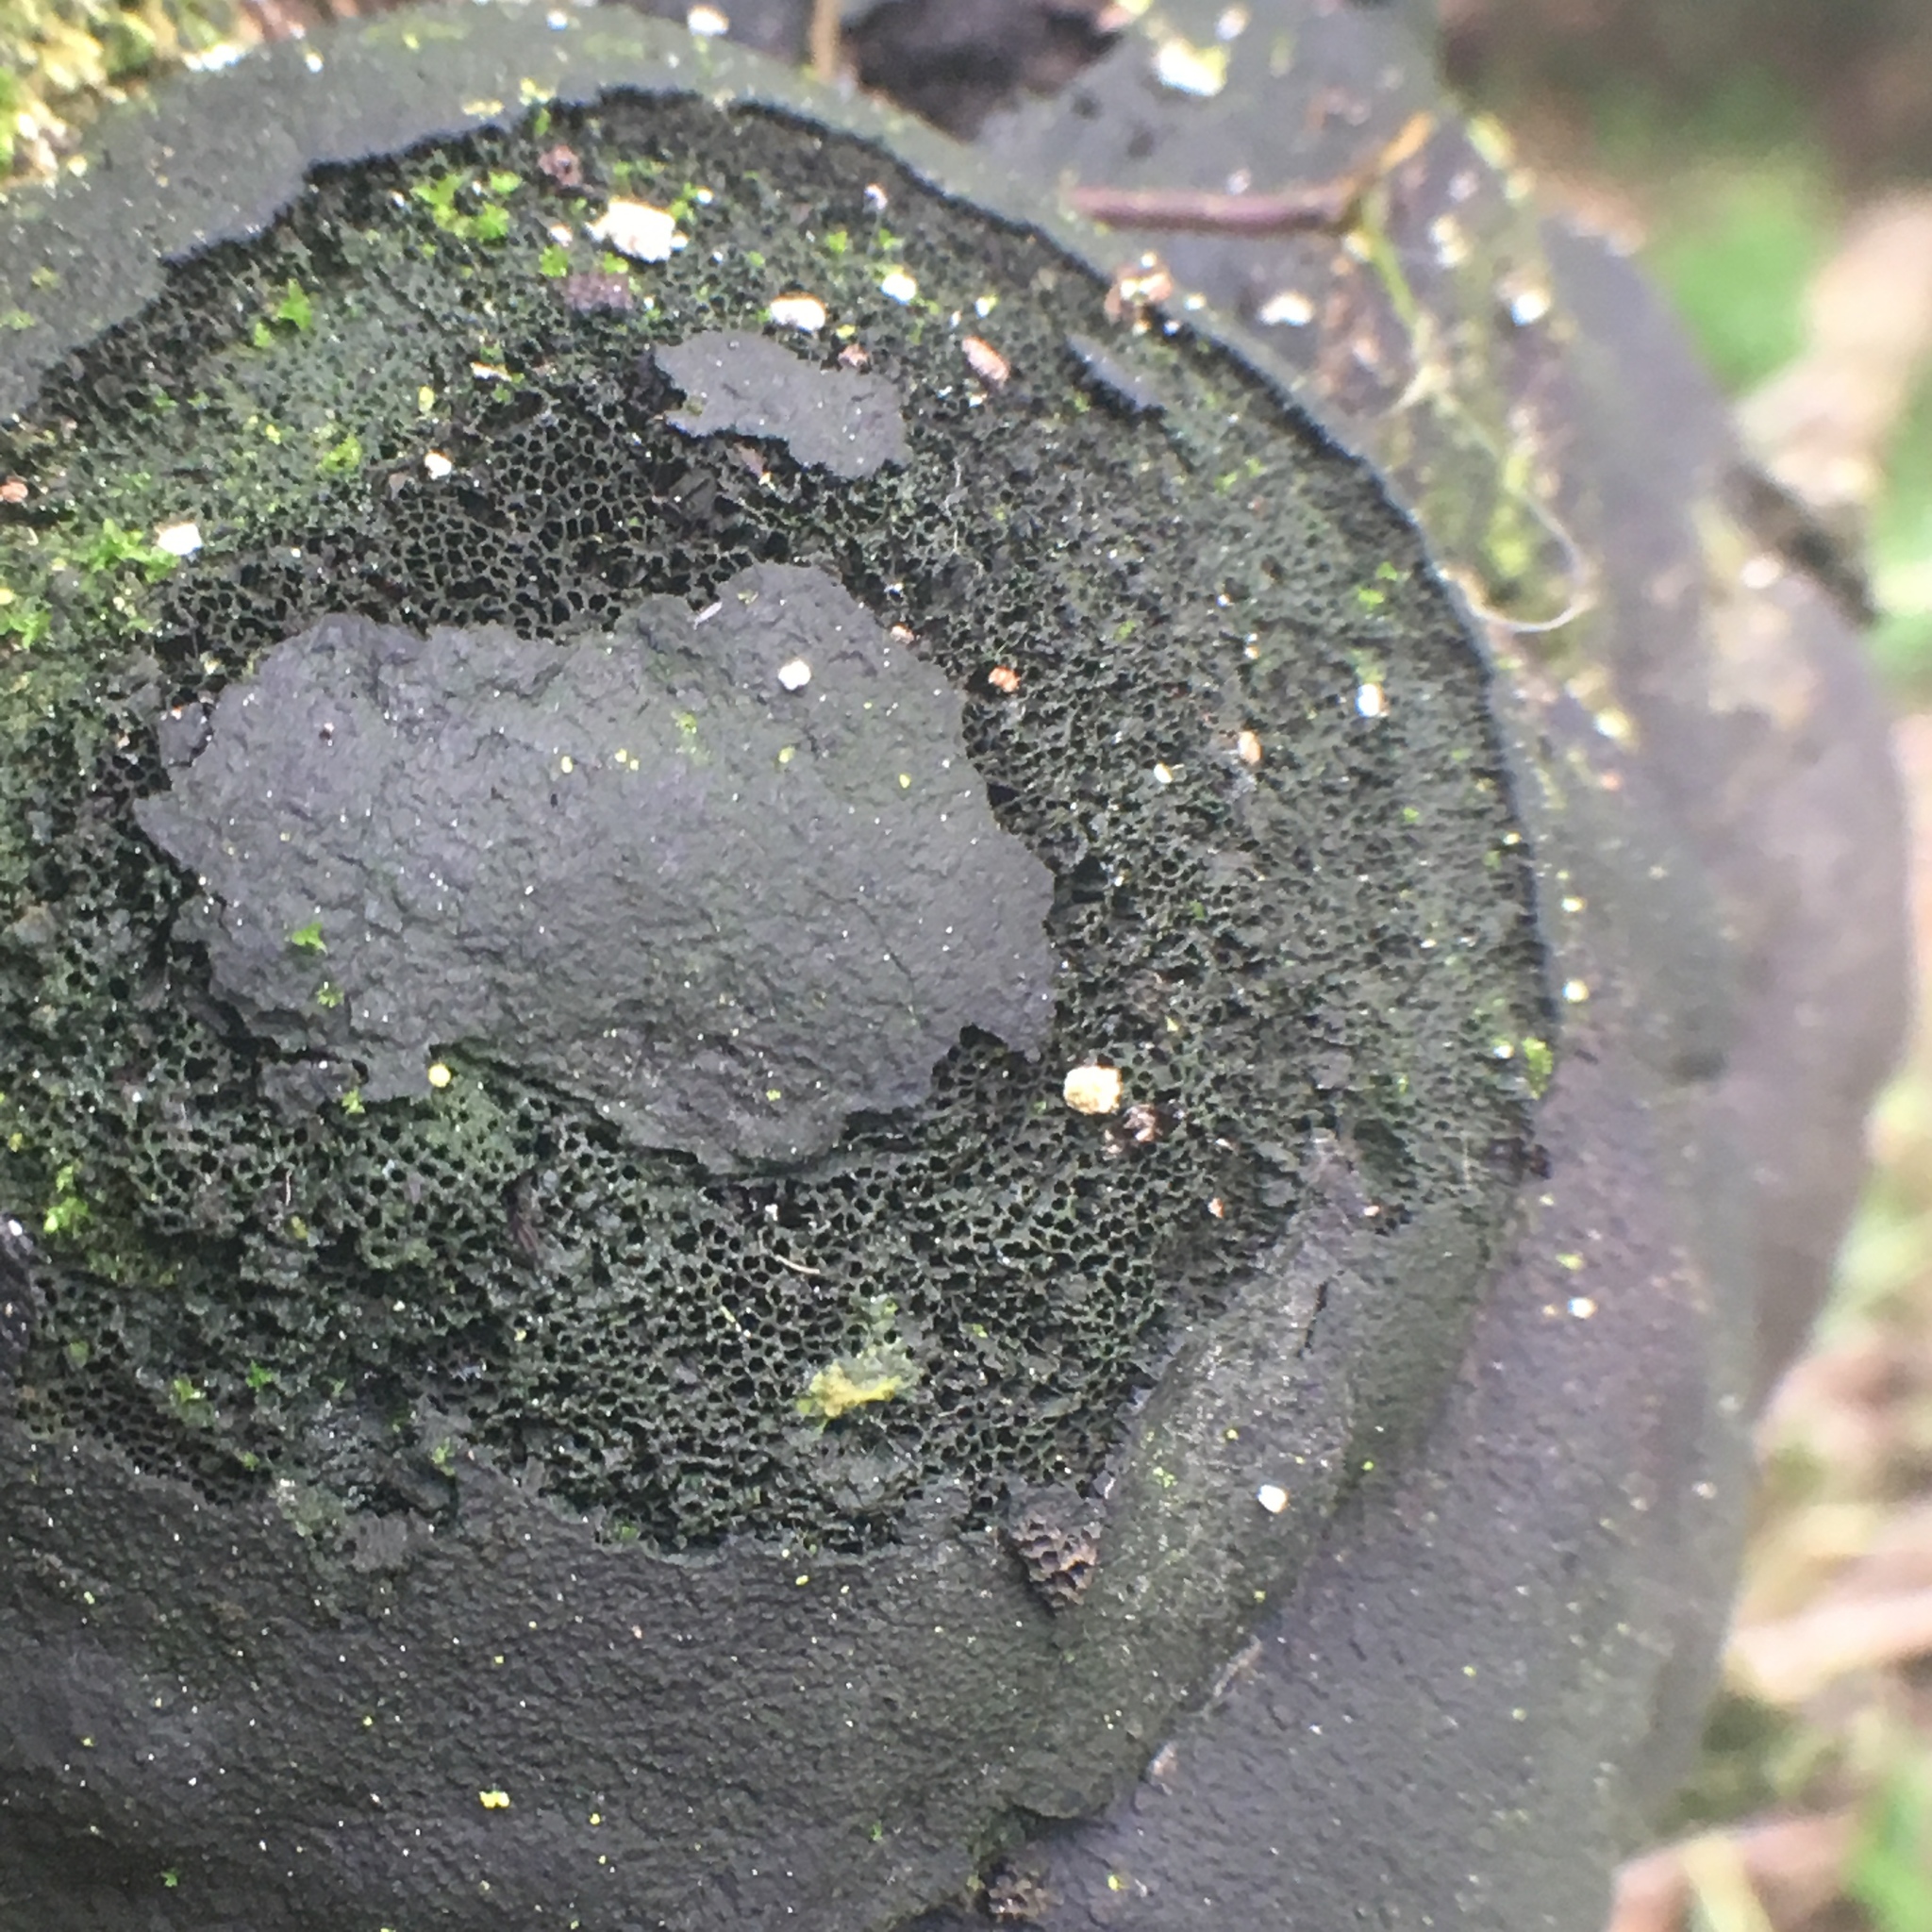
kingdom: Fungi
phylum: Ascomycota
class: Sordariomycetes
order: Xylariales
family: Hypoxylaceae
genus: Daldinia
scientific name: Daldinia
